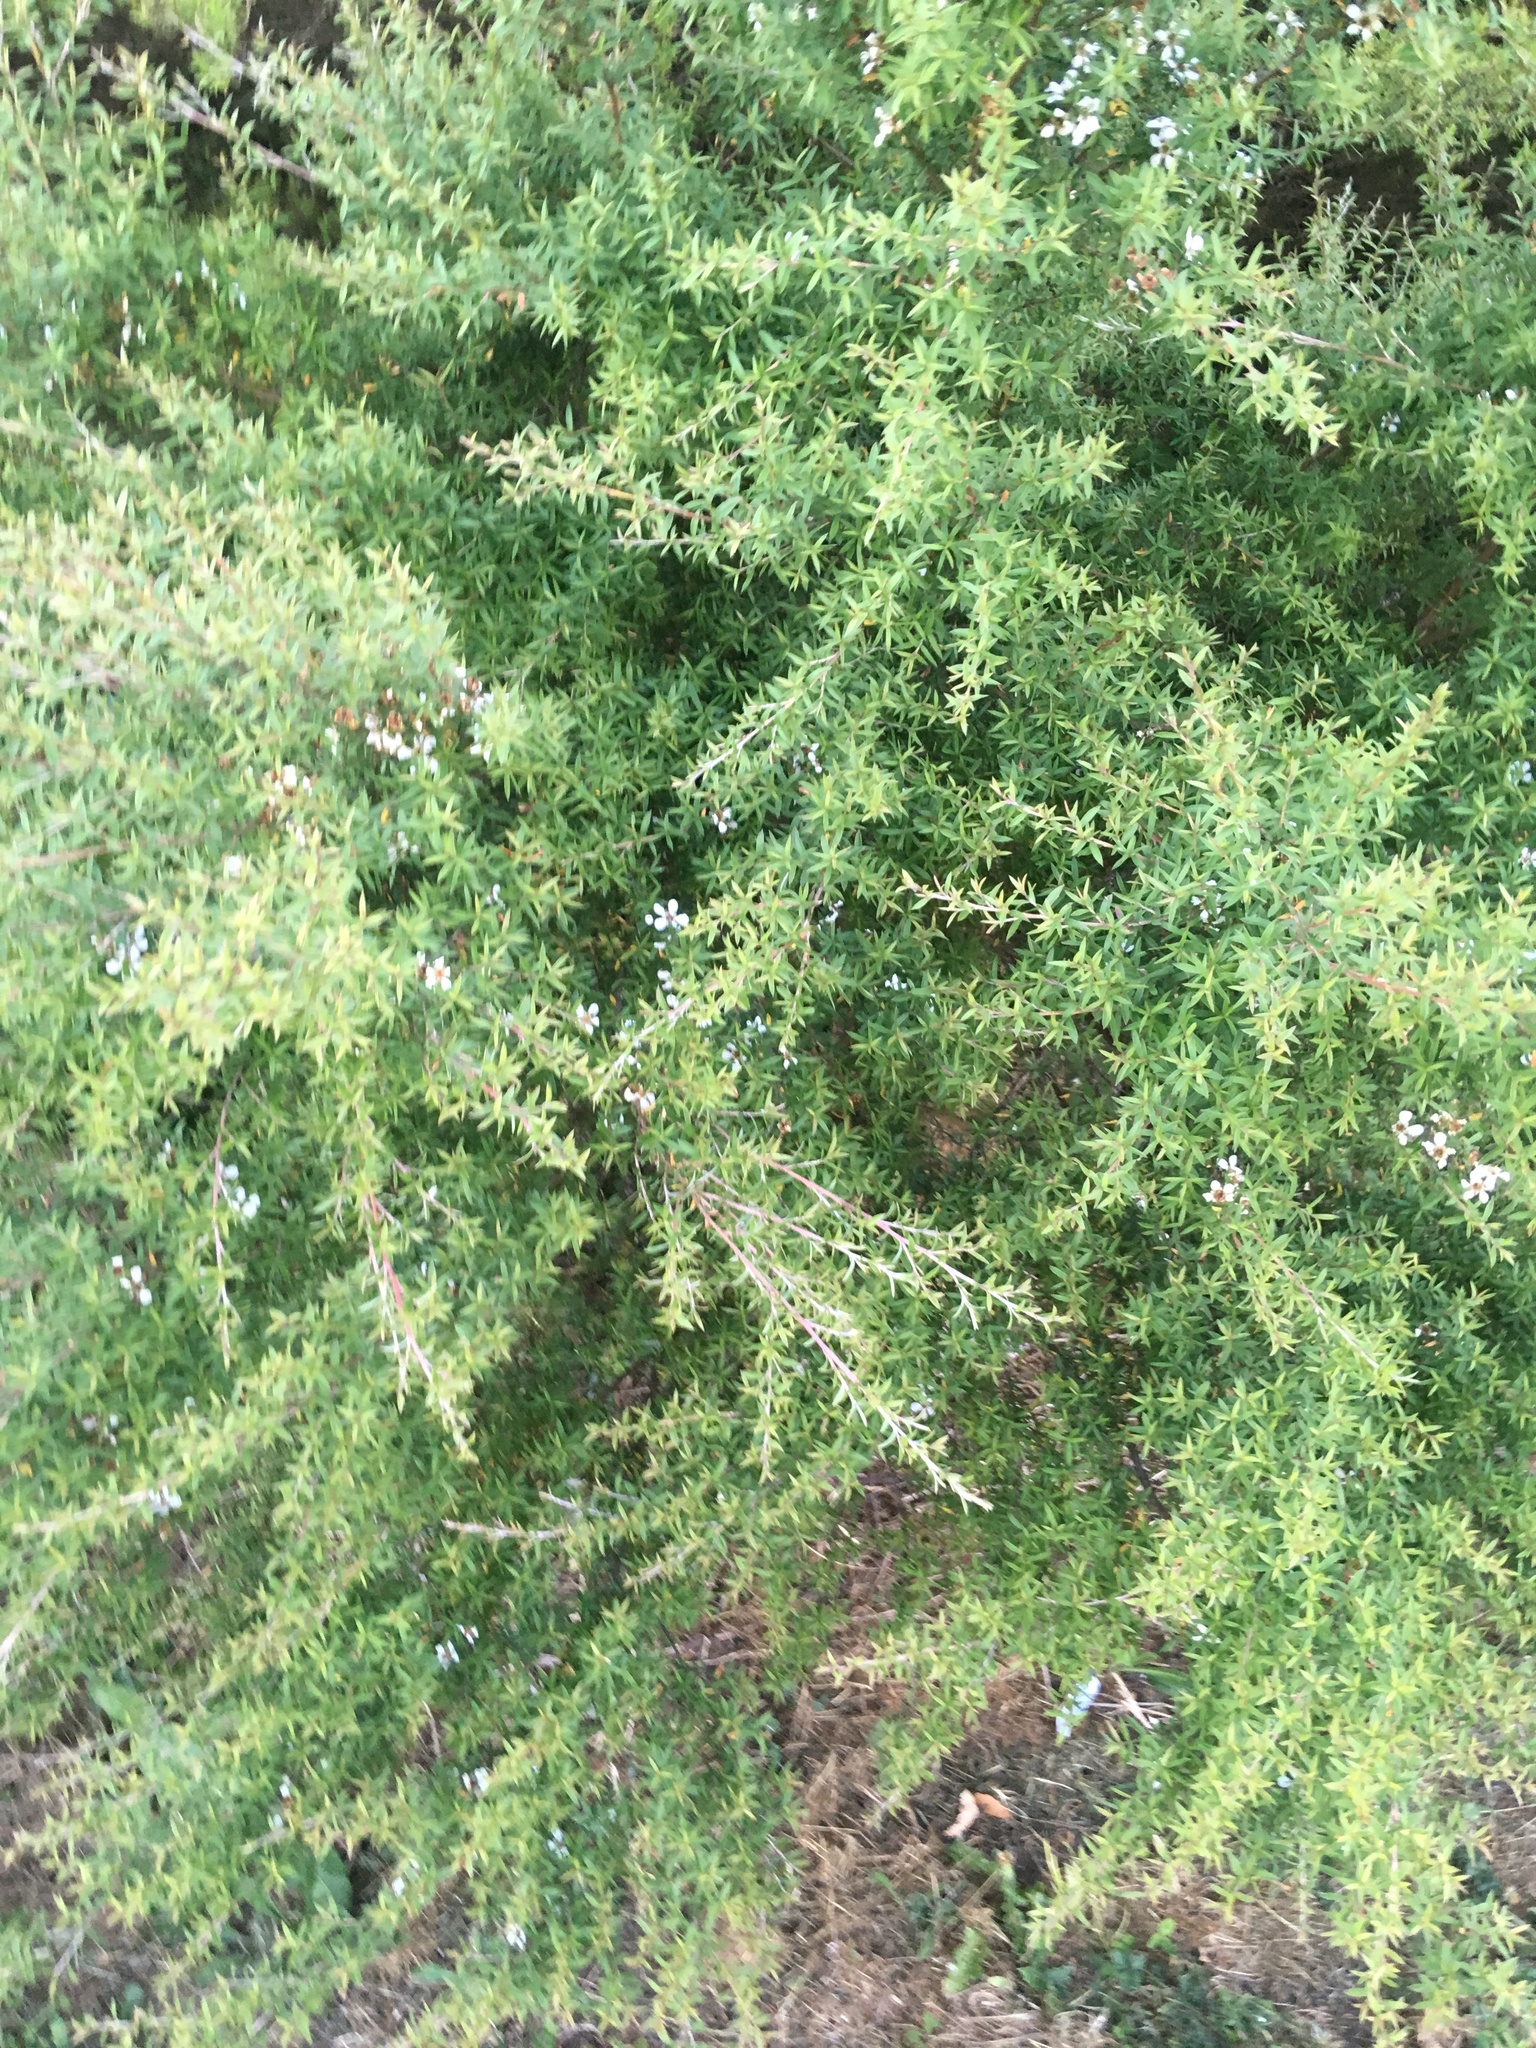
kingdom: Plantae
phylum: Tracheophyta
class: Magnoliopsida
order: Myrtales
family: Myrtaceae
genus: Leptospermum
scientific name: Leptospermum scoparium
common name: Broom tea-tree
